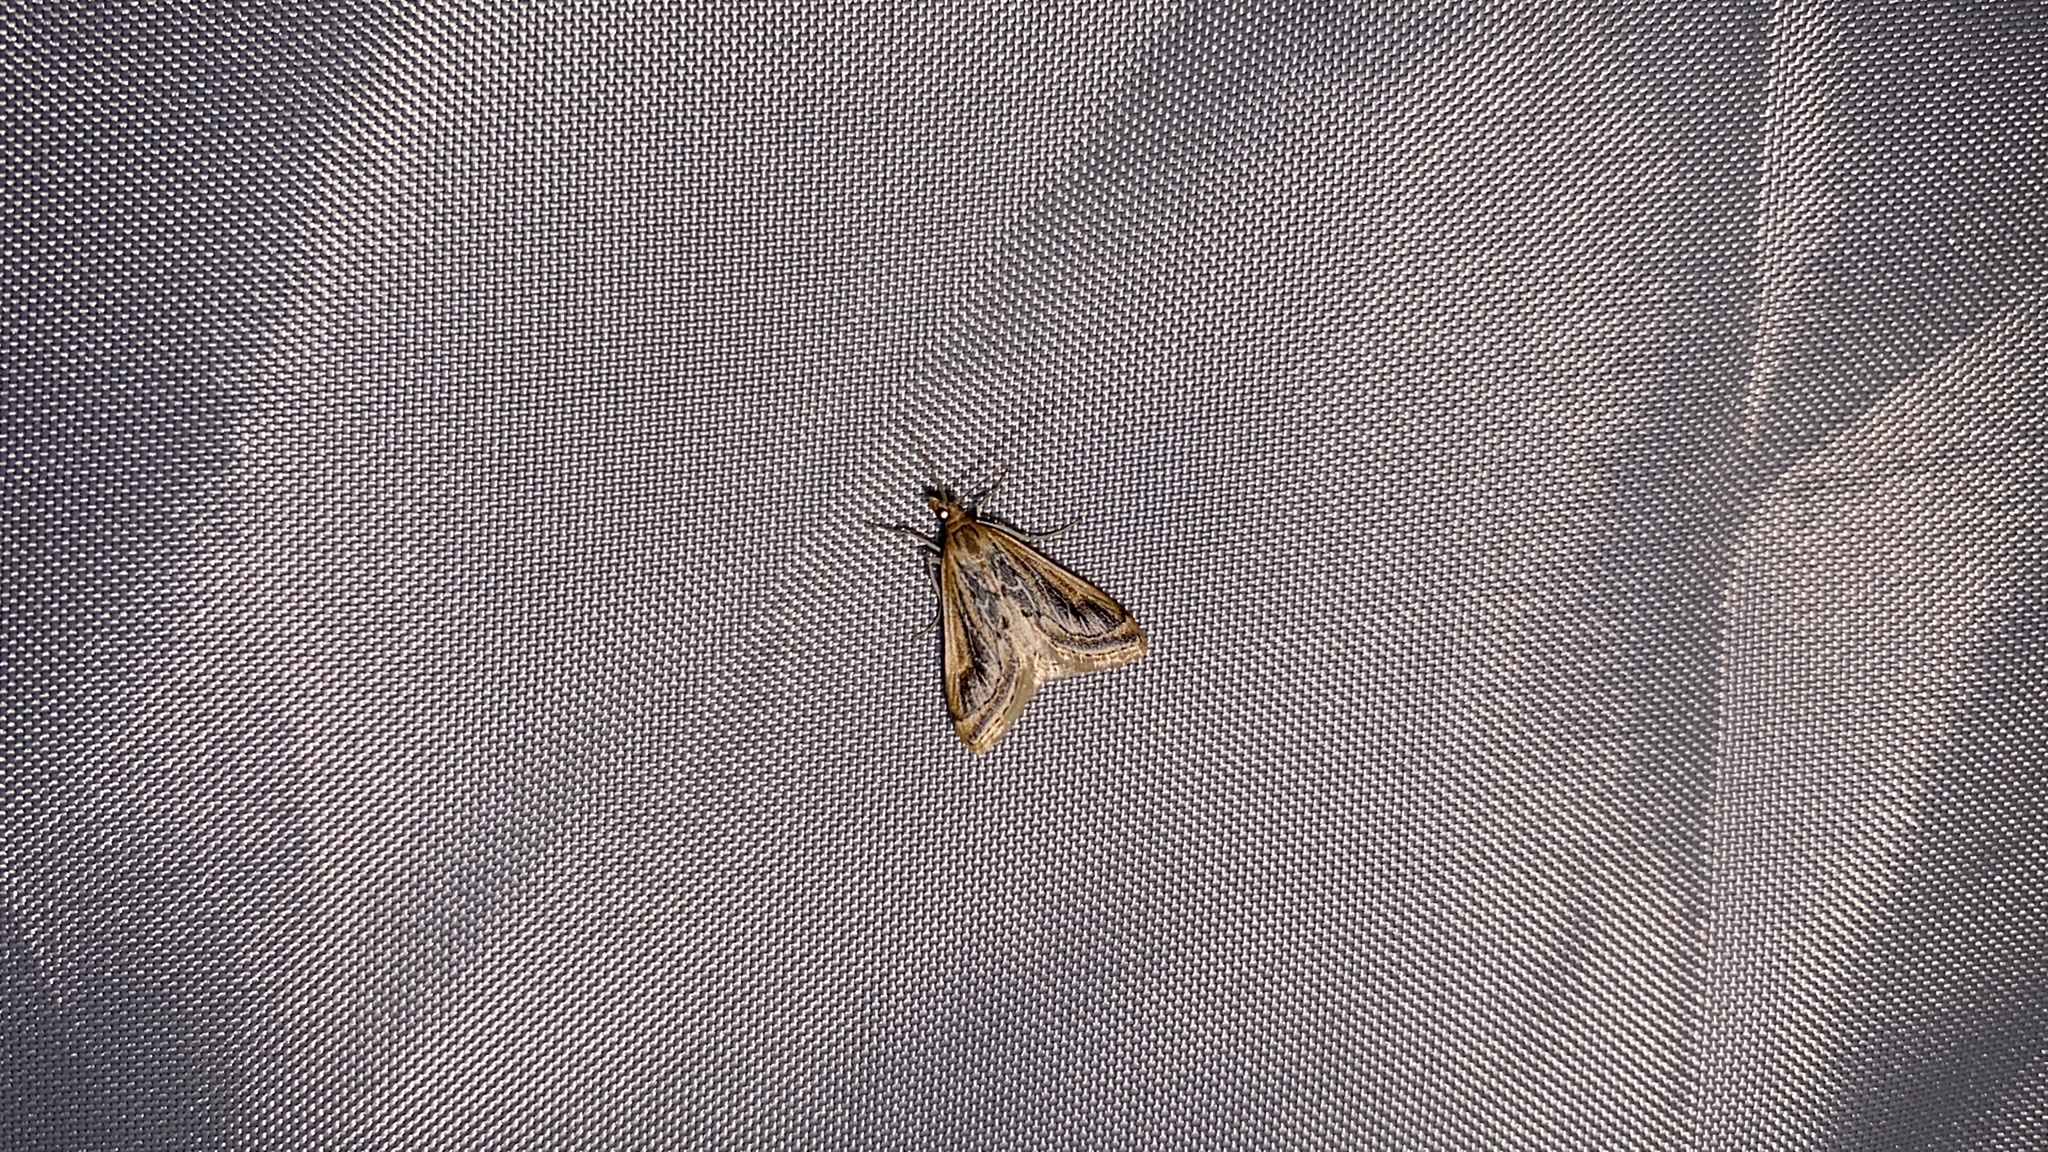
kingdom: Animalia
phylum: Arthropoda
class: Insecta
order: Lepidoptera
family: Crambidae
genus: Pyrausta
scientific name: Pyrausta ochreicostalis
